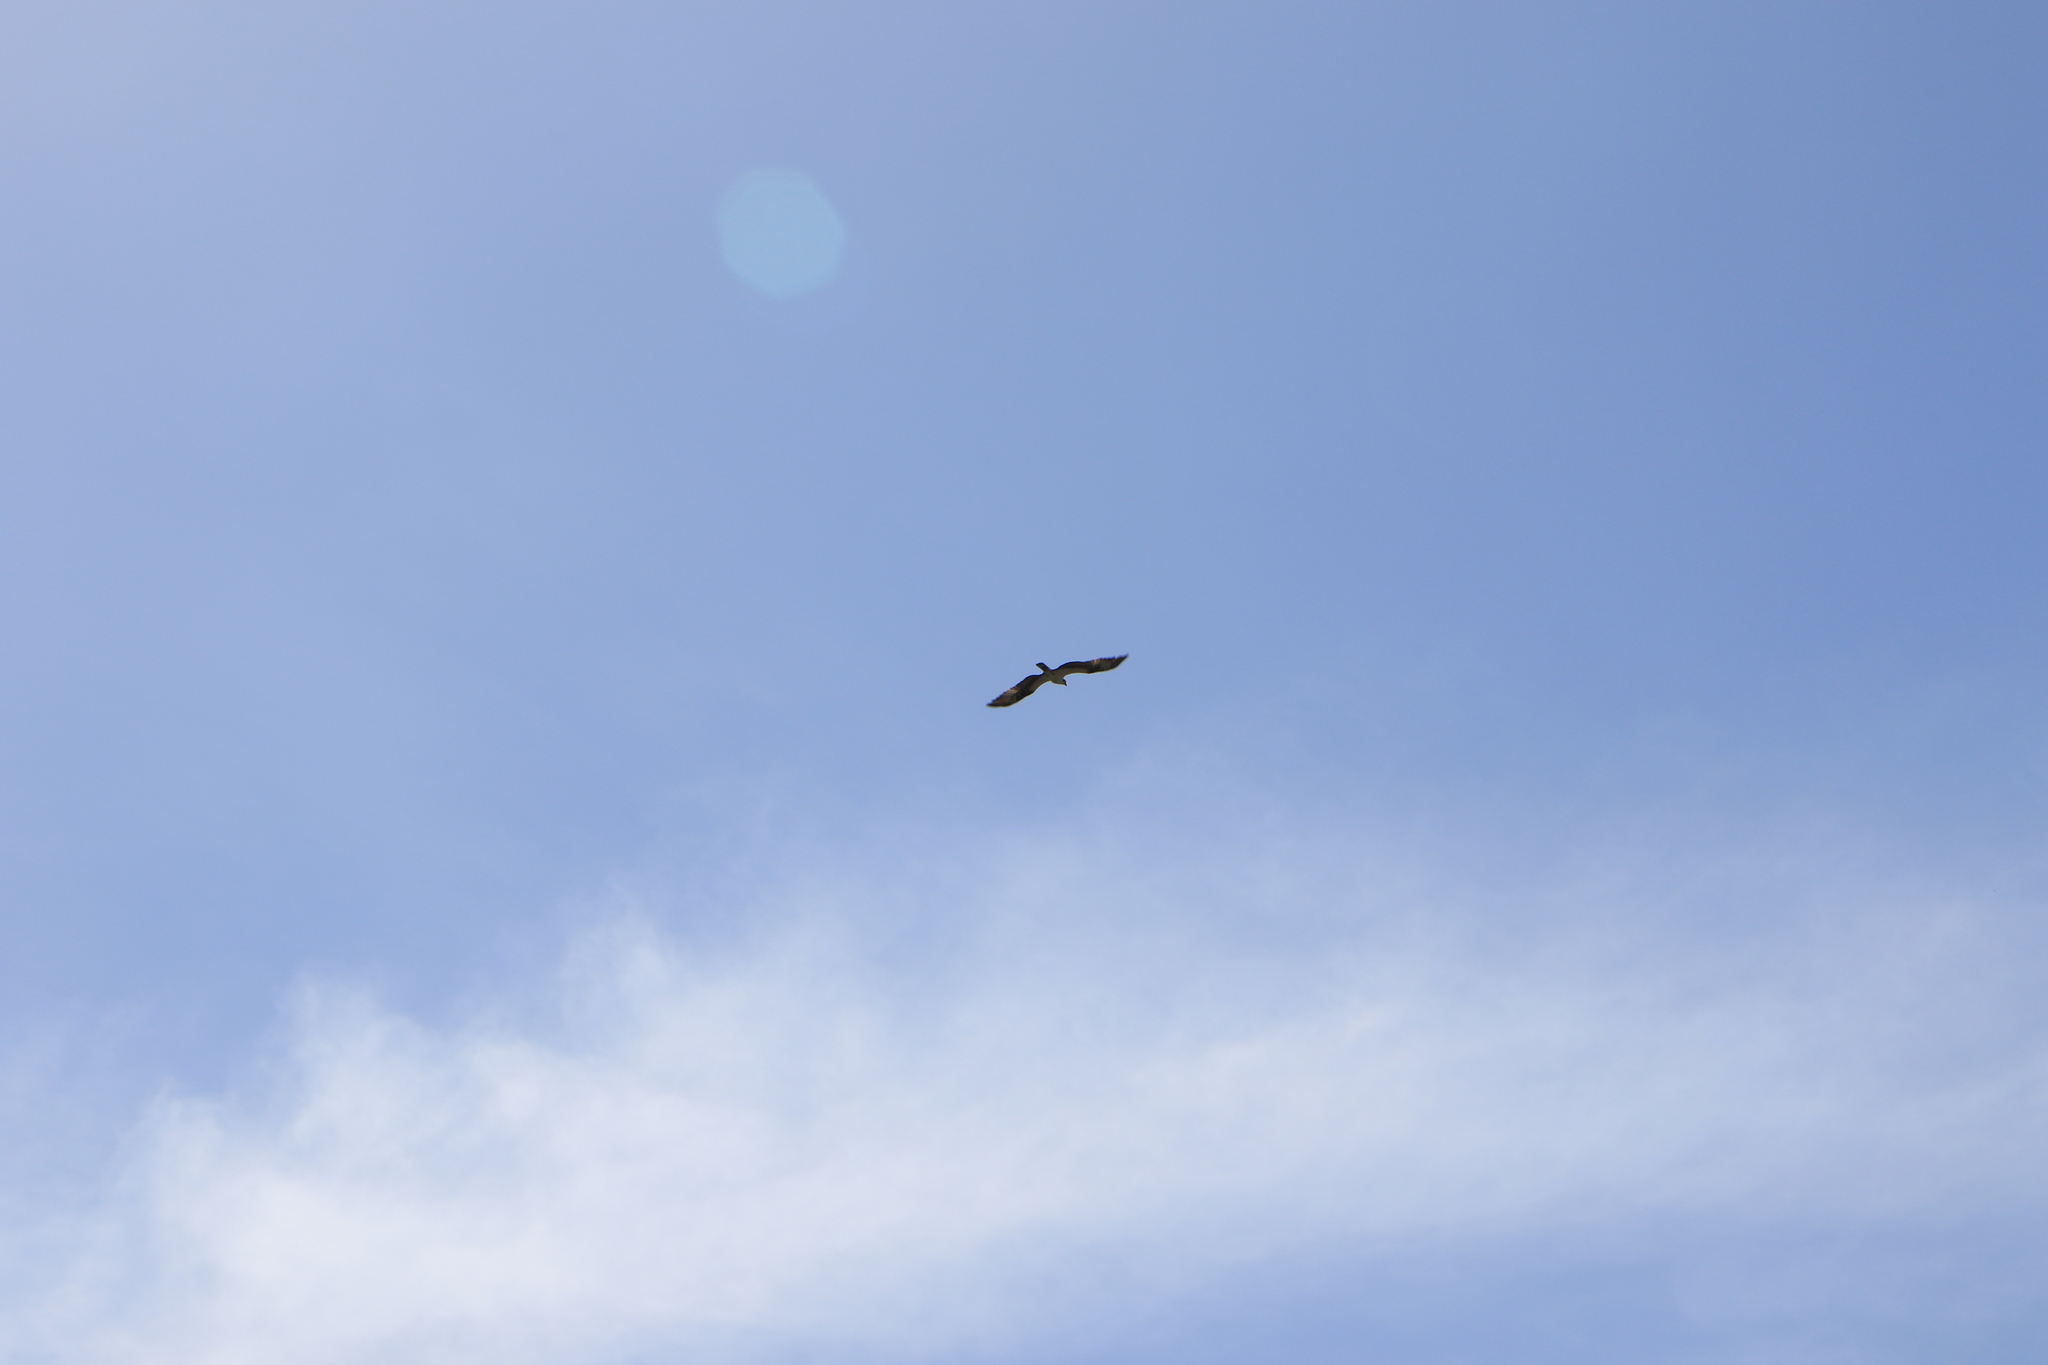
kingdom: Animalia
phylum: Chordata
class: Aves
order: Accipitriformes
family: Pandionidae
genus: Pandion
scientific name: Pandion haliaetus
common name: Osprey
